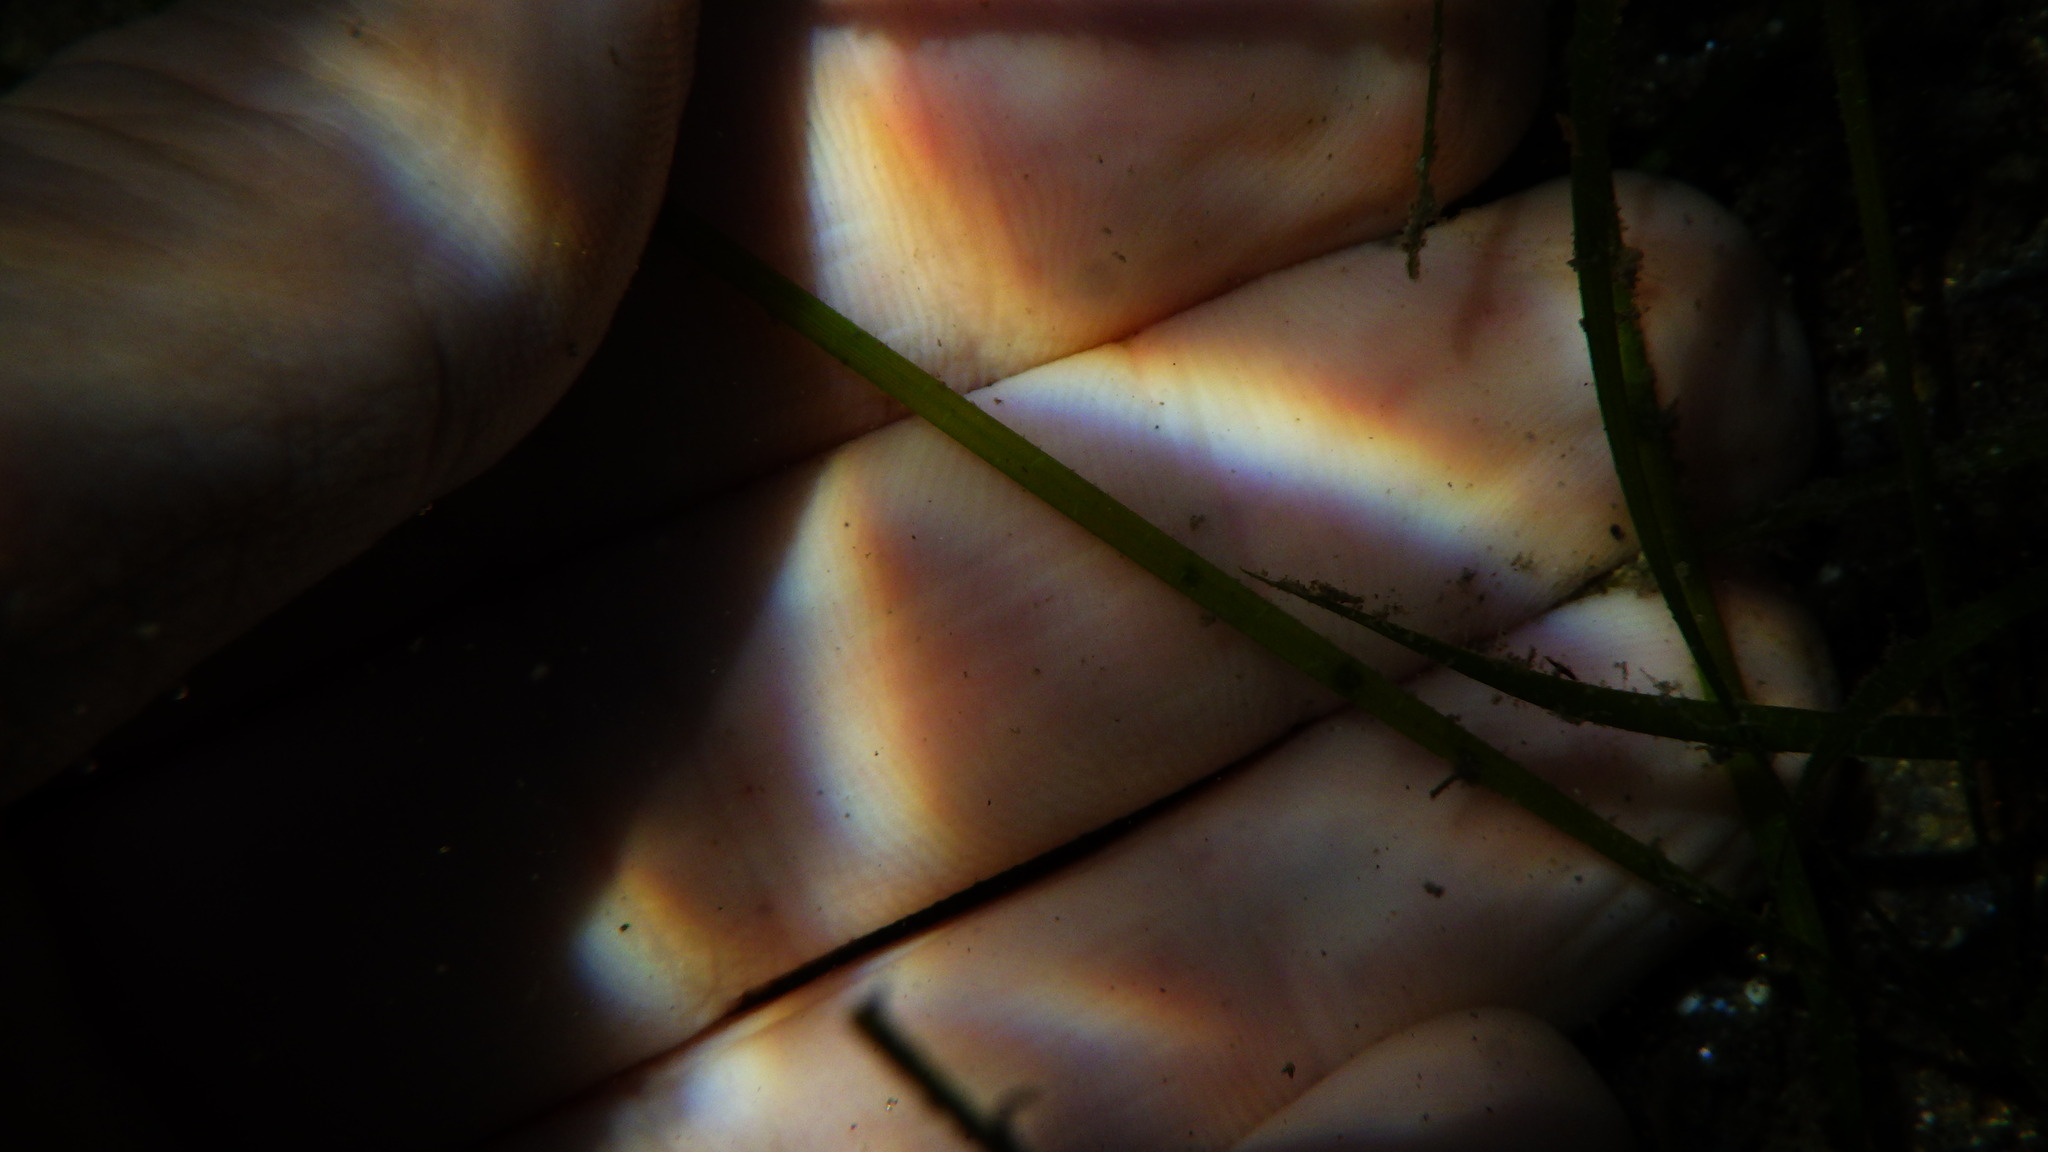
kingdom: Plantae
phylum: Tracheophyta
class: Liliopsida
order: Alismatales
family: Zosteraceae
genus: Zostera
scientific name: Zostera noltii
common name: Dwarf eelgrass
